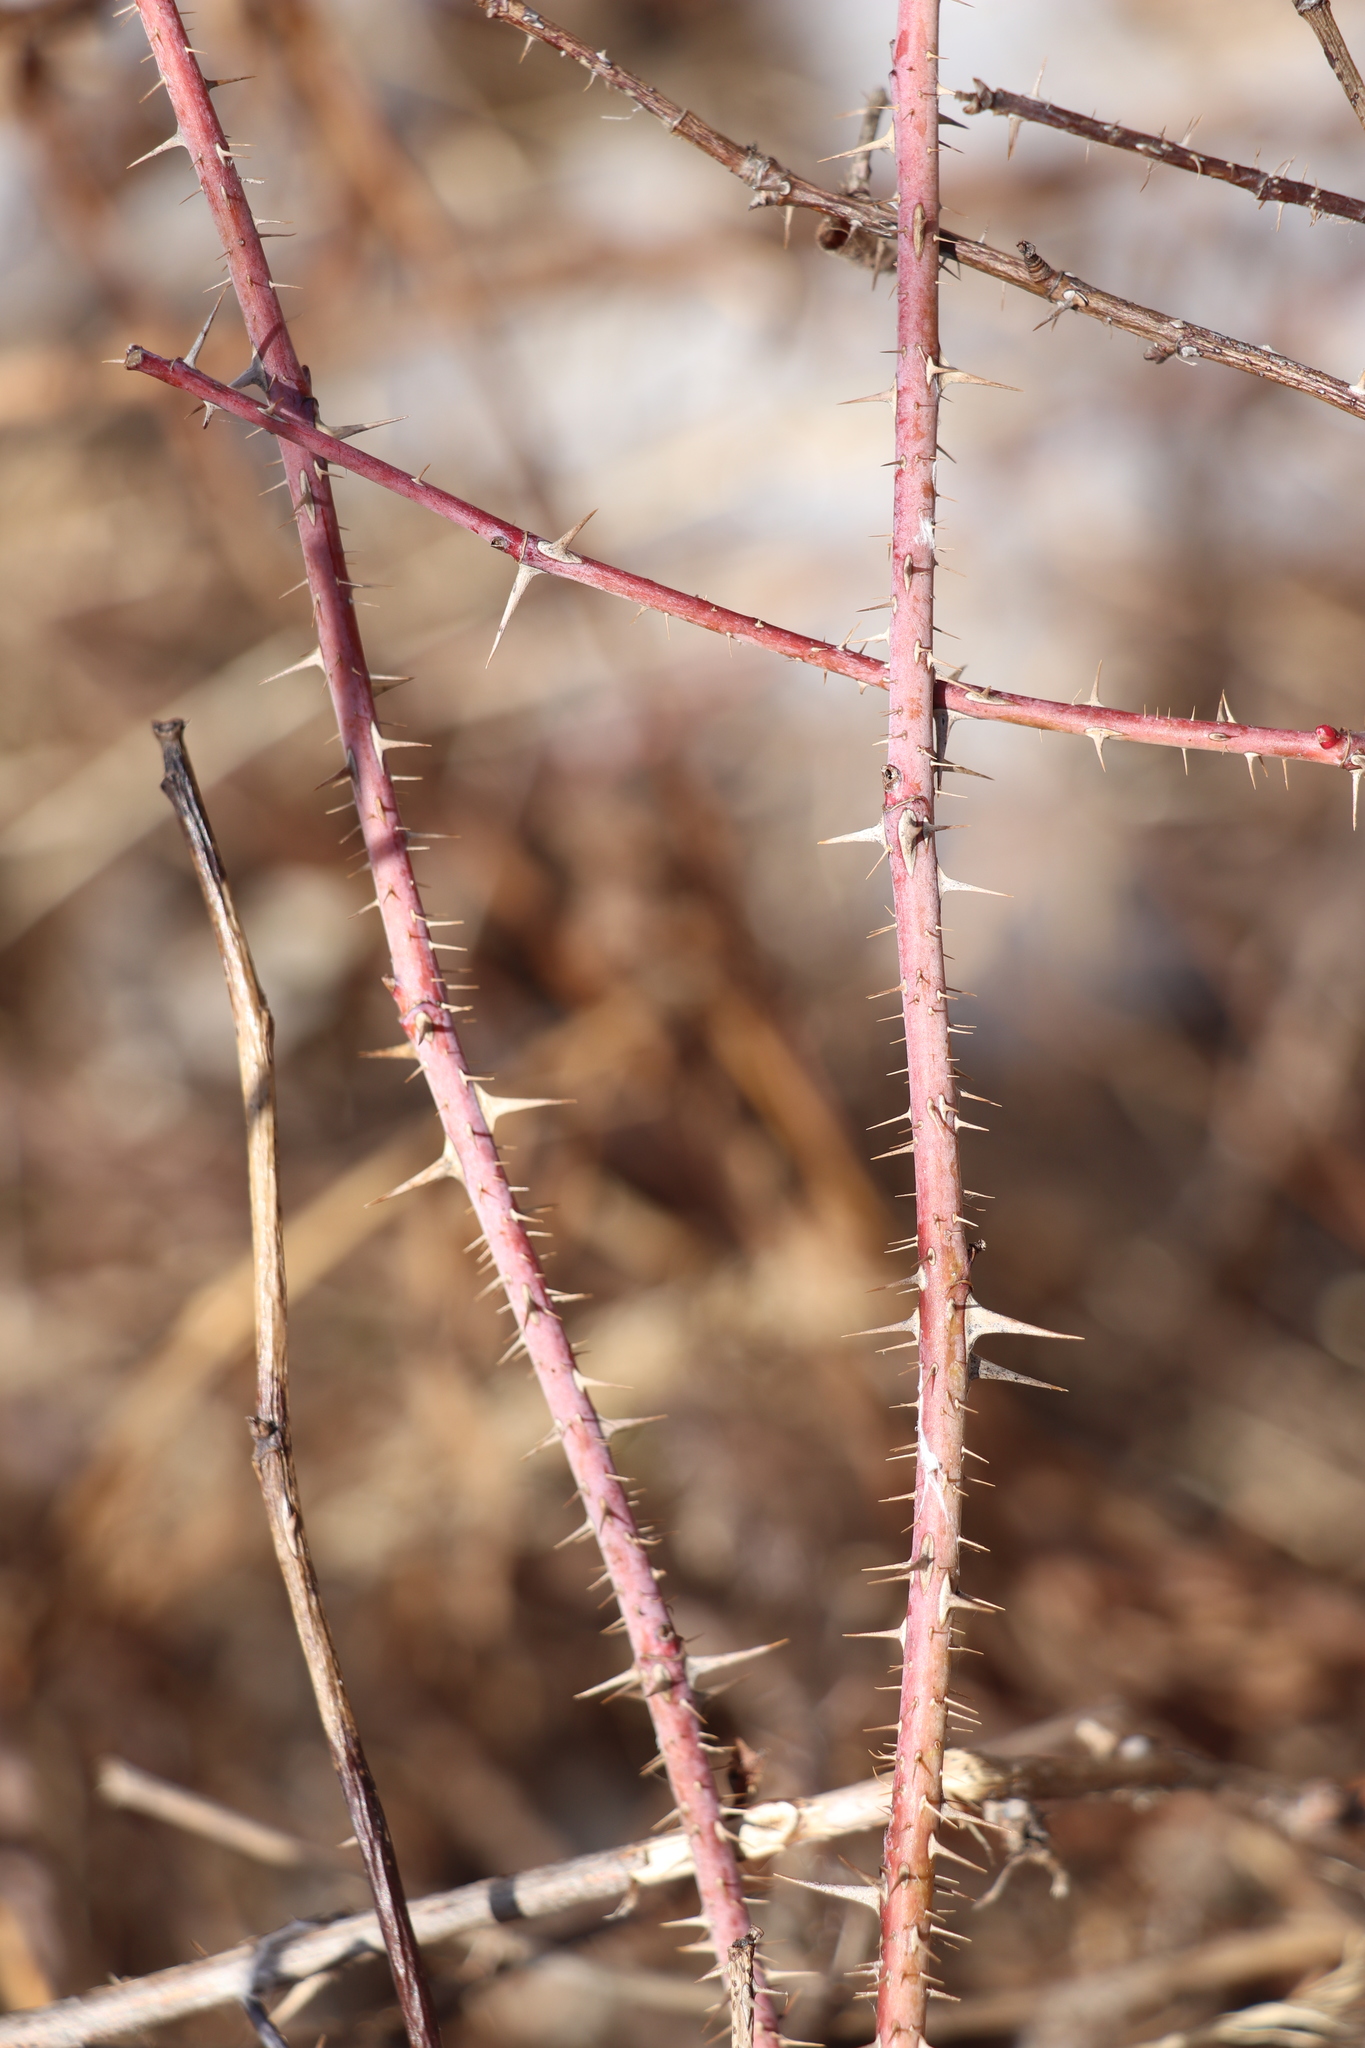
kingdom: Plantae
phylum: Tracheophyta
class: Magnoliopsida
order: Rosales
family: Rosaceae
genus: Rosa
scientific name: Rosa majalis
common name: Cinnamon rose
